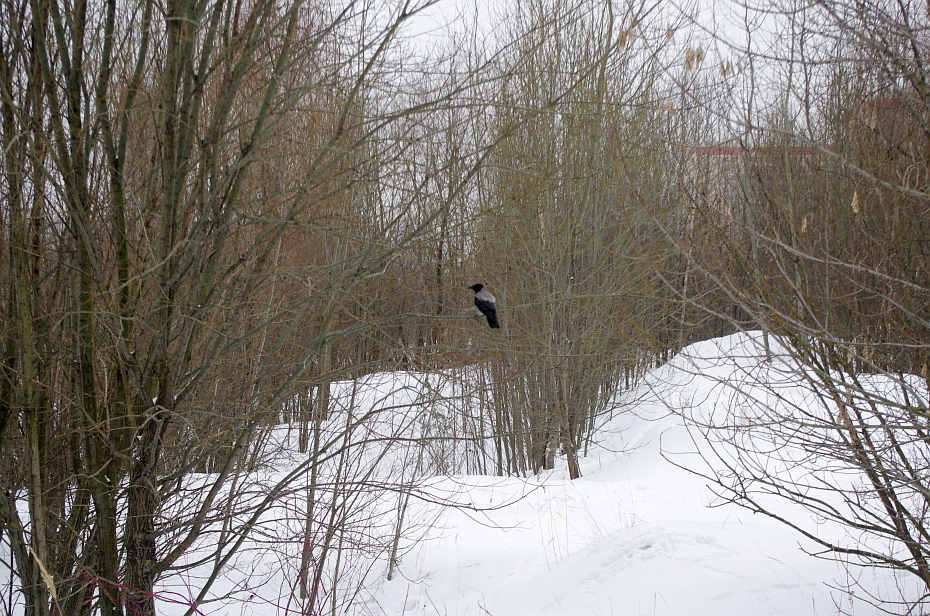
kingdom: Animalia
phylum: Chordata
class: Aves
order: Passeriformes
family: Corvidae
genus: Corvus
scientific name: Corvus cornix
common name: Hooded crow
